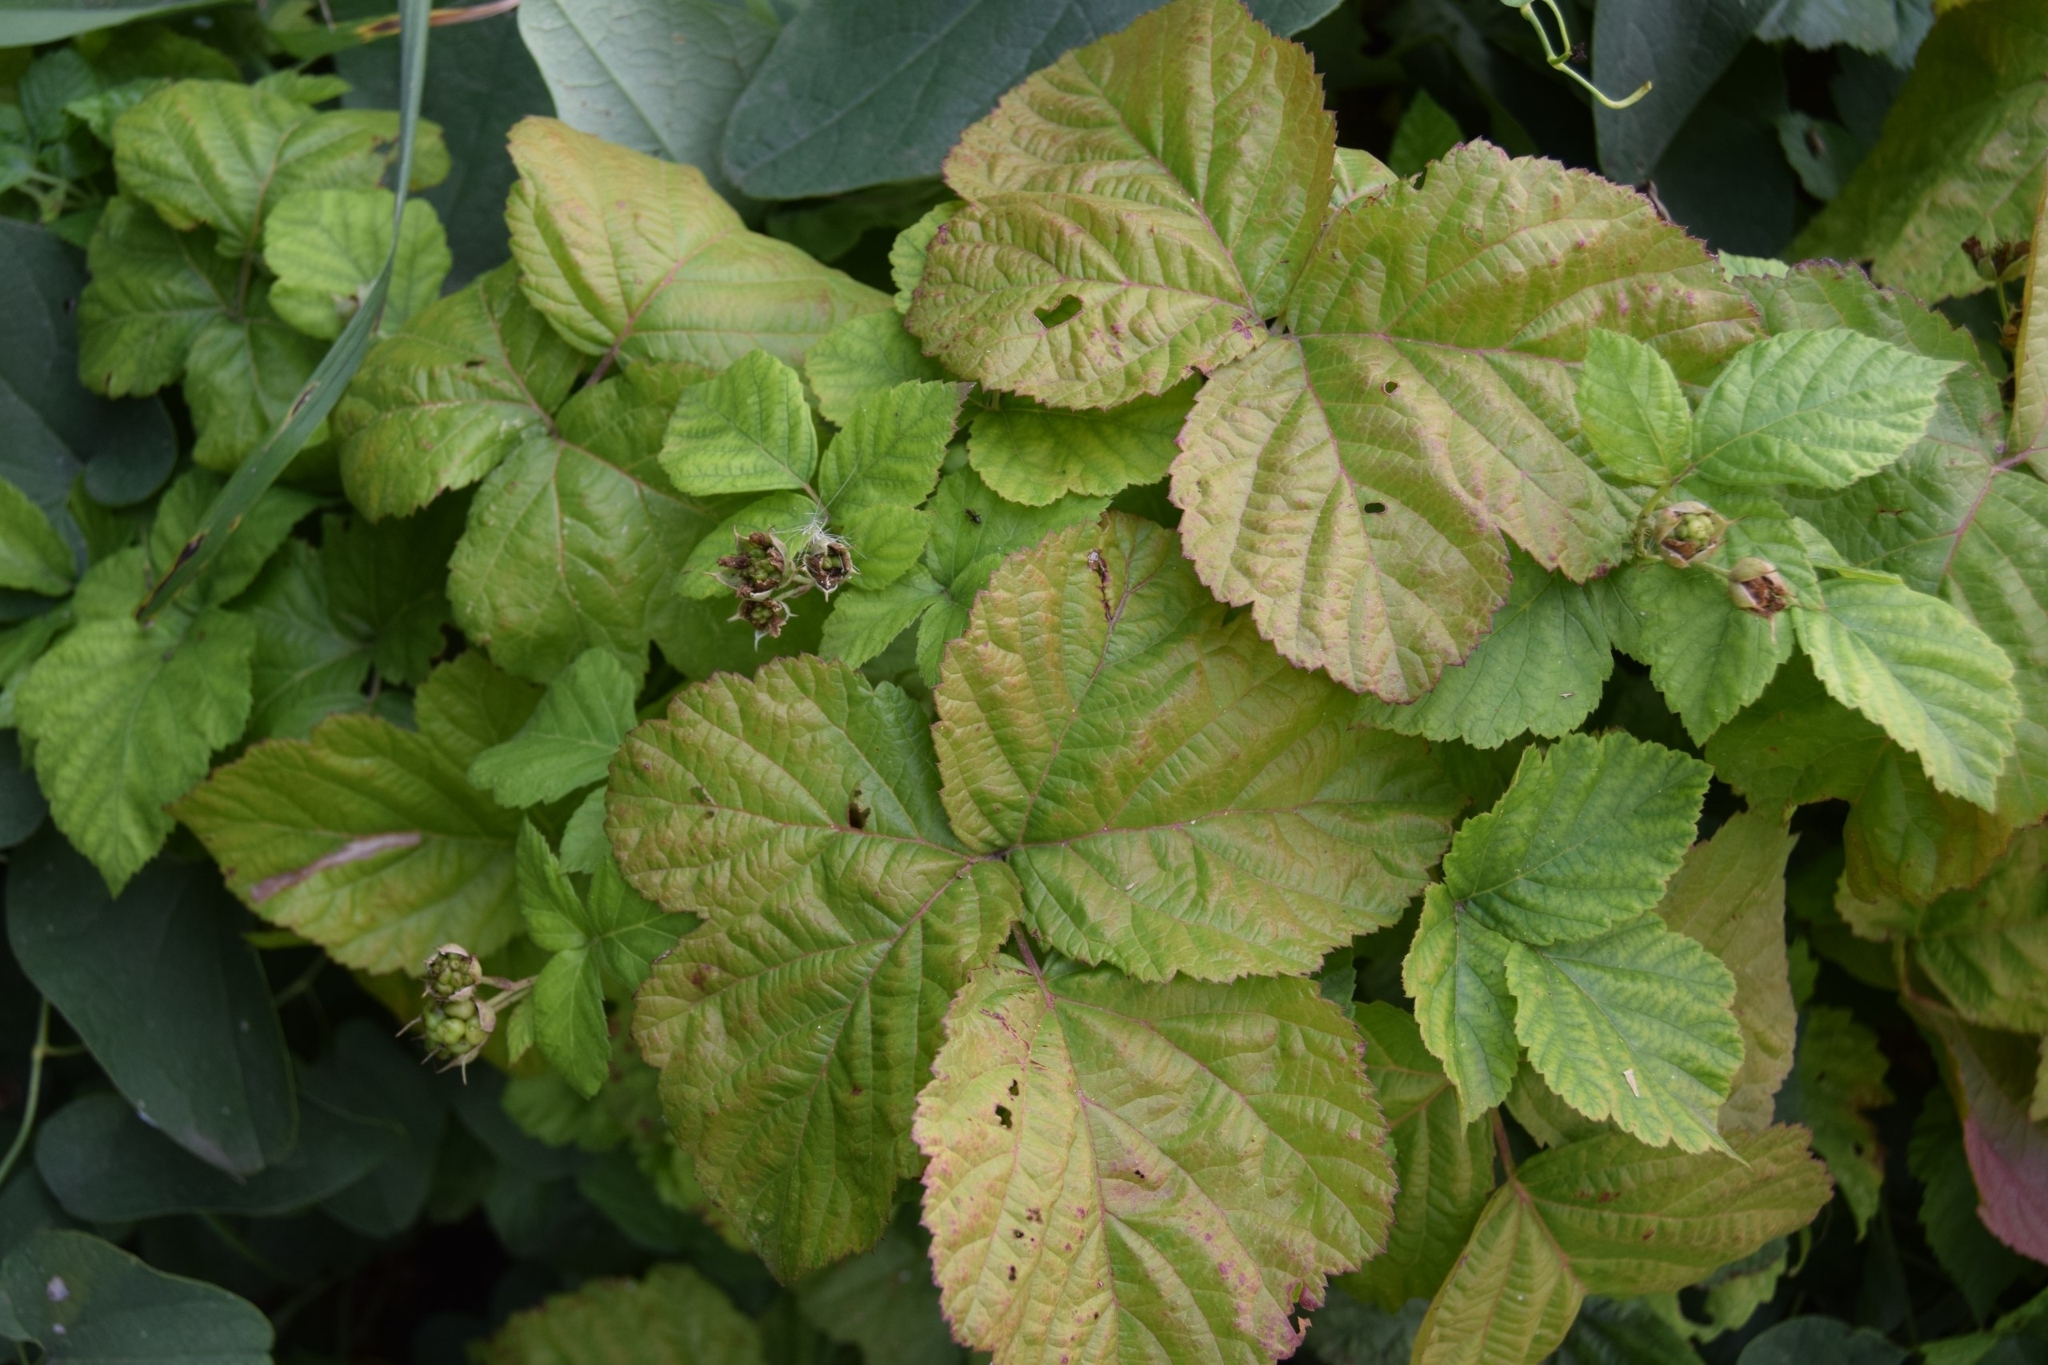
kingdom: Plantae
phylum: Tracheophyta
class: Magnoliopsida
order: Rosales
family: Rosaceae
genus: Rubus
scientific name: Rubus caesius
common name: Dewberry
